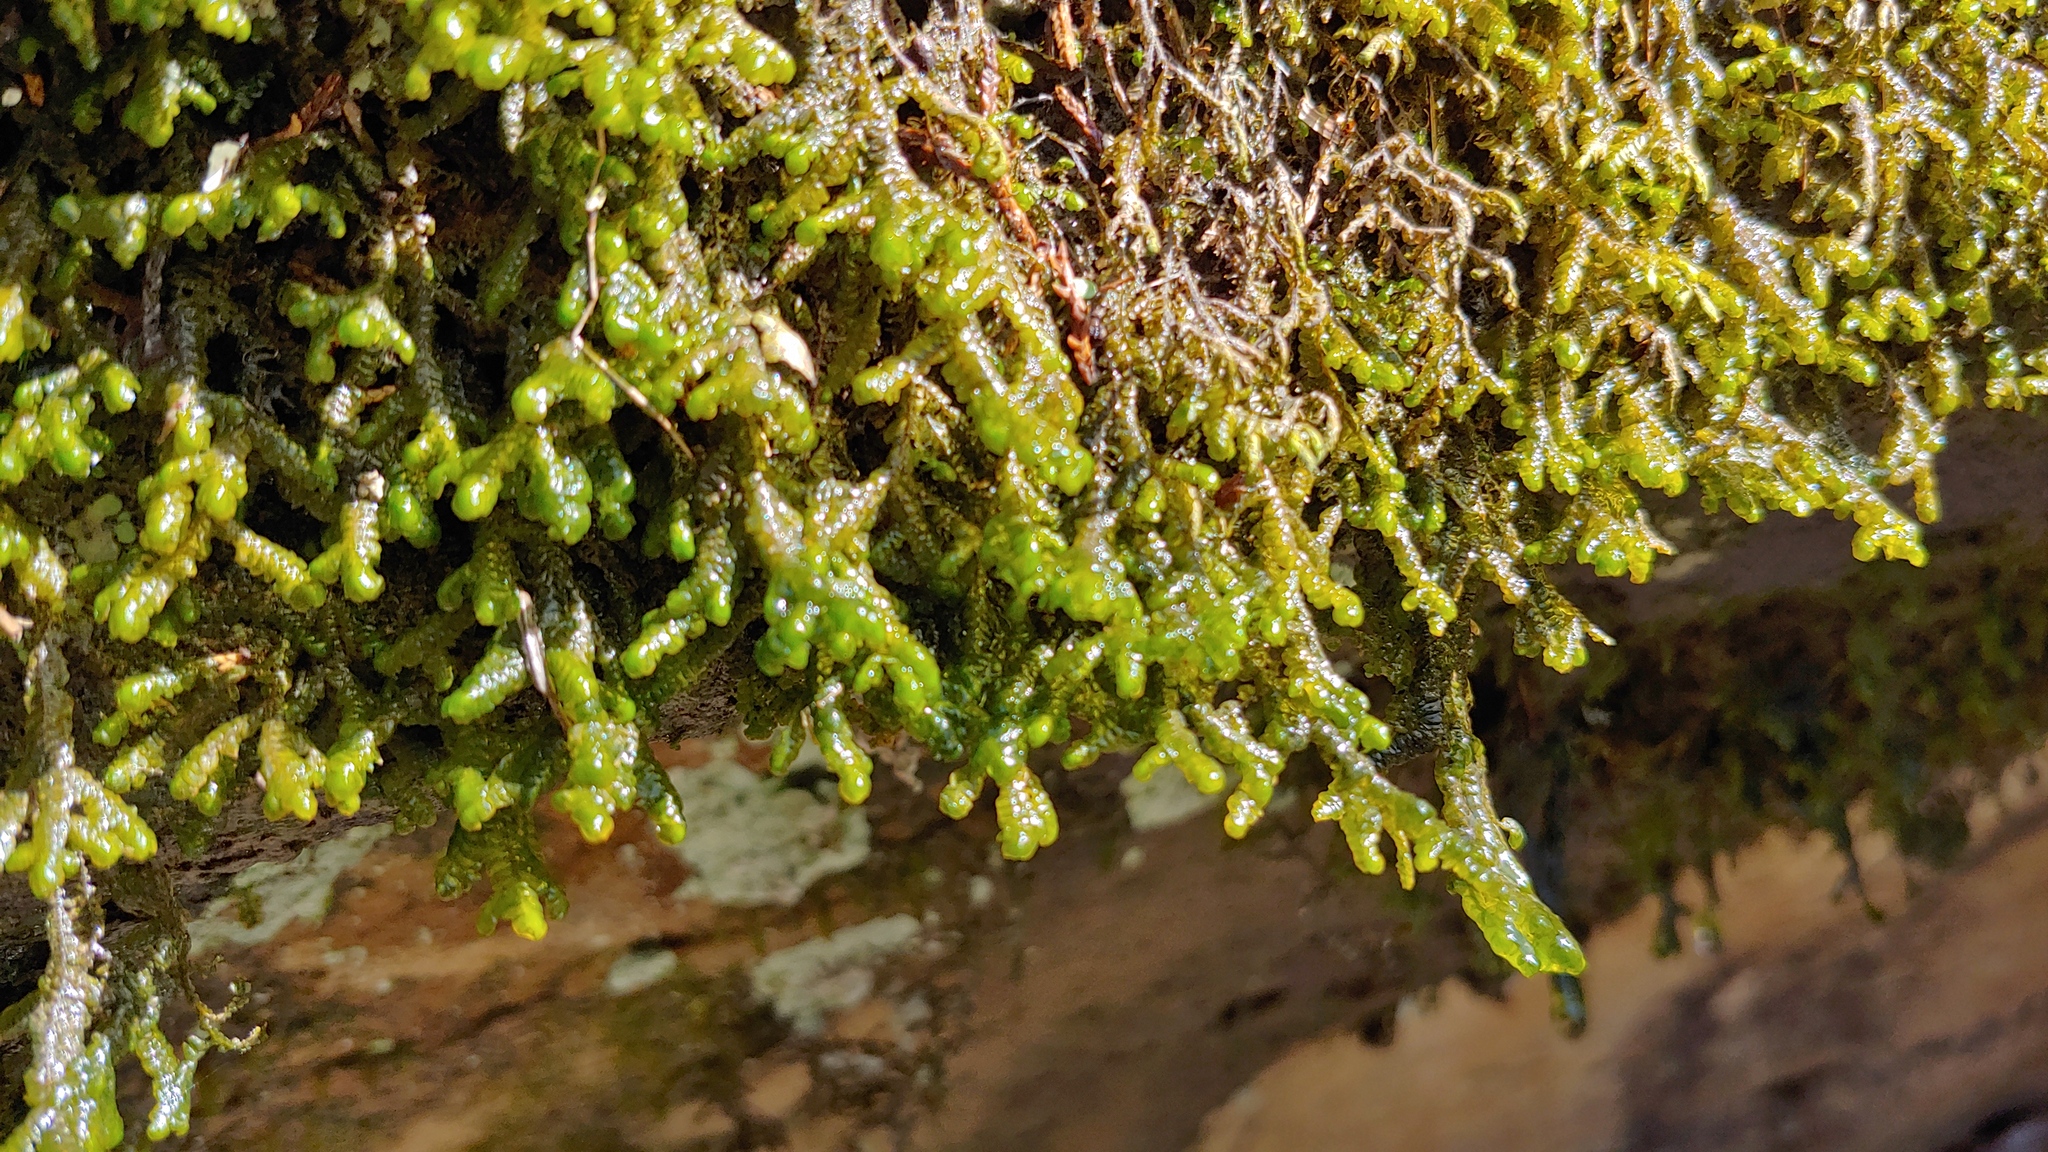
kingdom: Plantae
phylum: Marchantiophyta
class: Jungermanniopsida
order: Porellales
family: Porellaceae
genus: Porella
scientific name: Porella pinnata
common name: Pinnate scalewort
